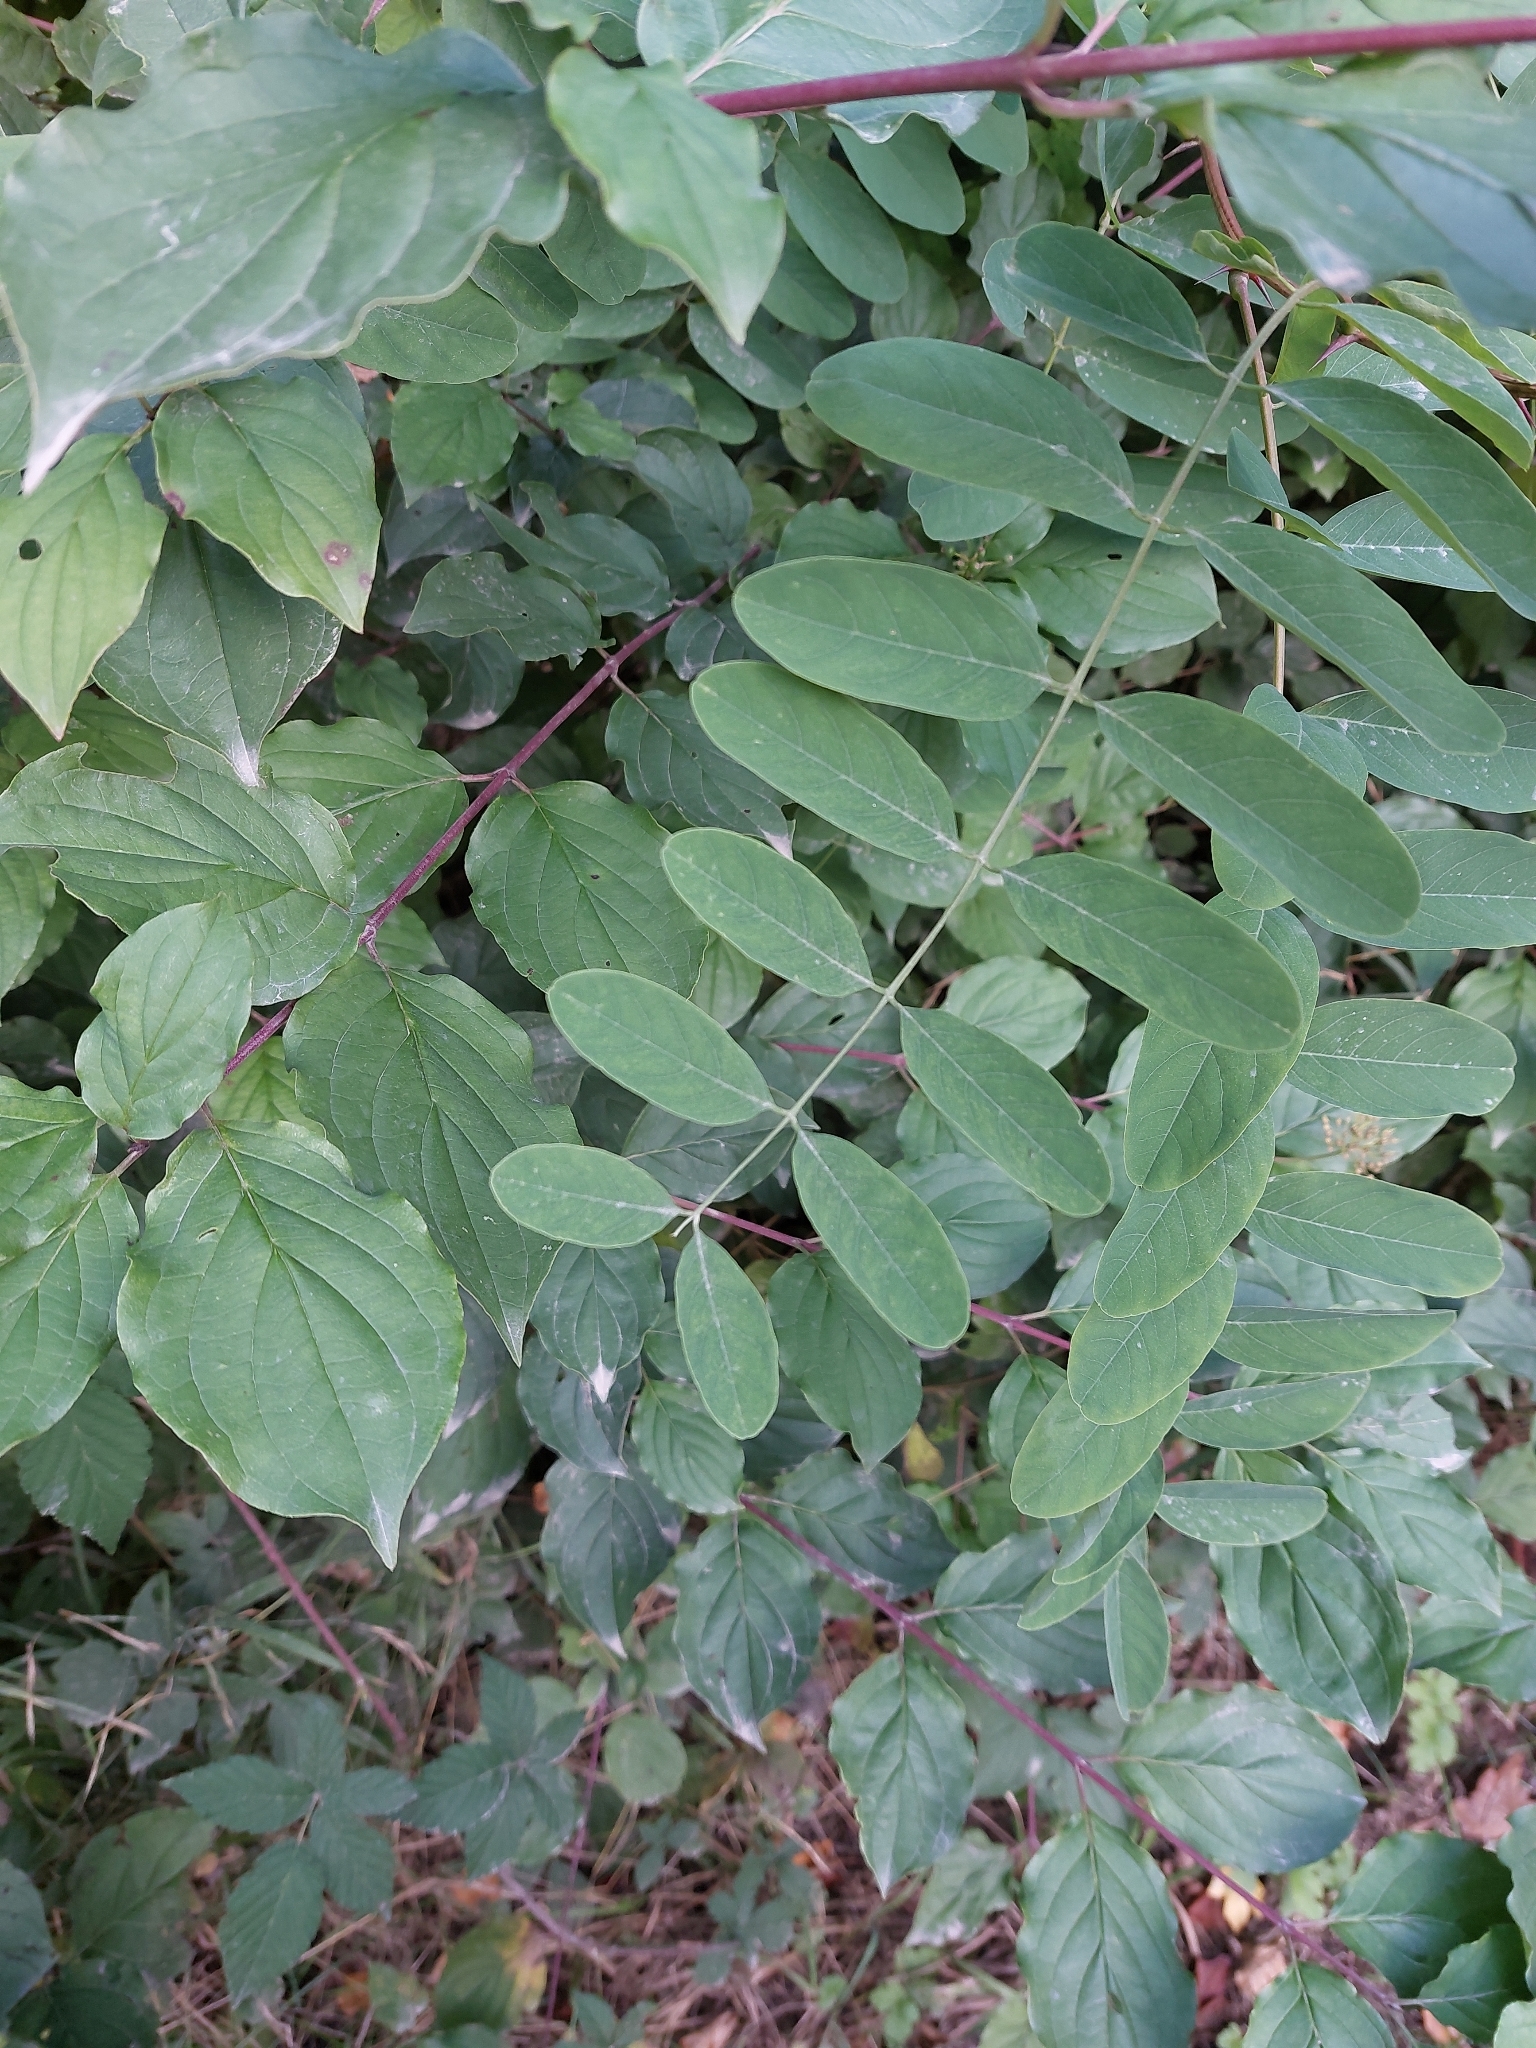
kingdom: Plantae
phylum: Tracheophyta
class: Magnoliopsida
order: Fabales
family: Fabaceae
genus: Robinia
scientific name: Robinia pseudoacacia
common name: Black locust
